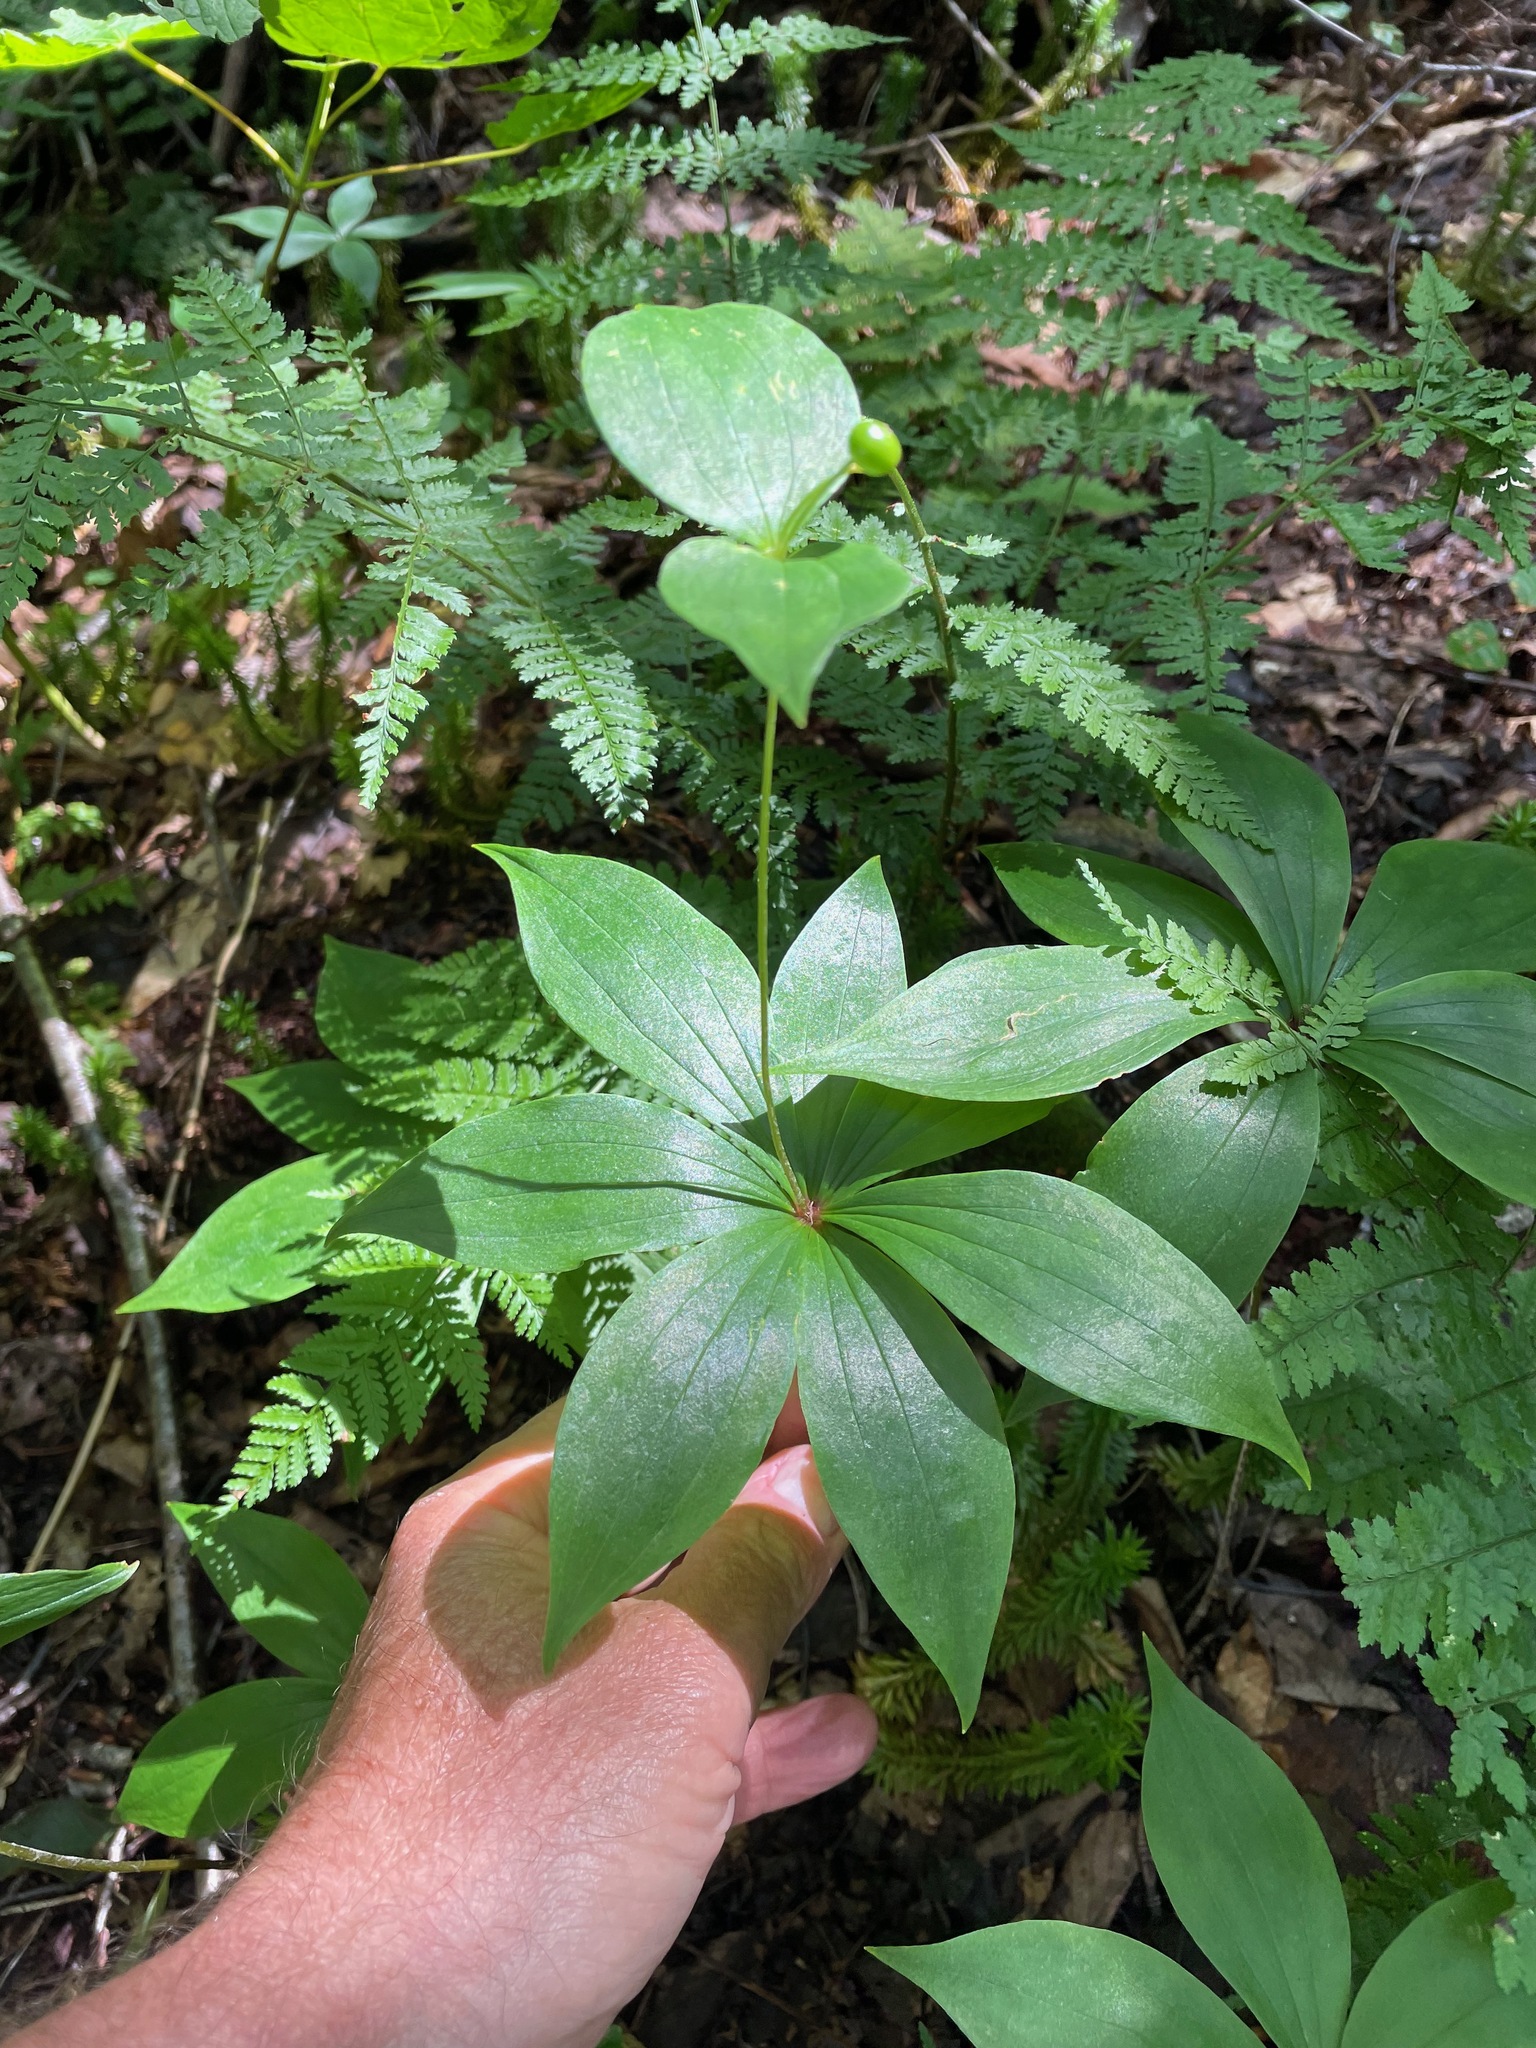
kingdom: Plantae
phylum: Tracheophyta
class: Liliopsida
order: Liliales
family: Liliaceae
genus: Medeola
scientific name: Medeola virginiana
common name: Indian cucumber-root
